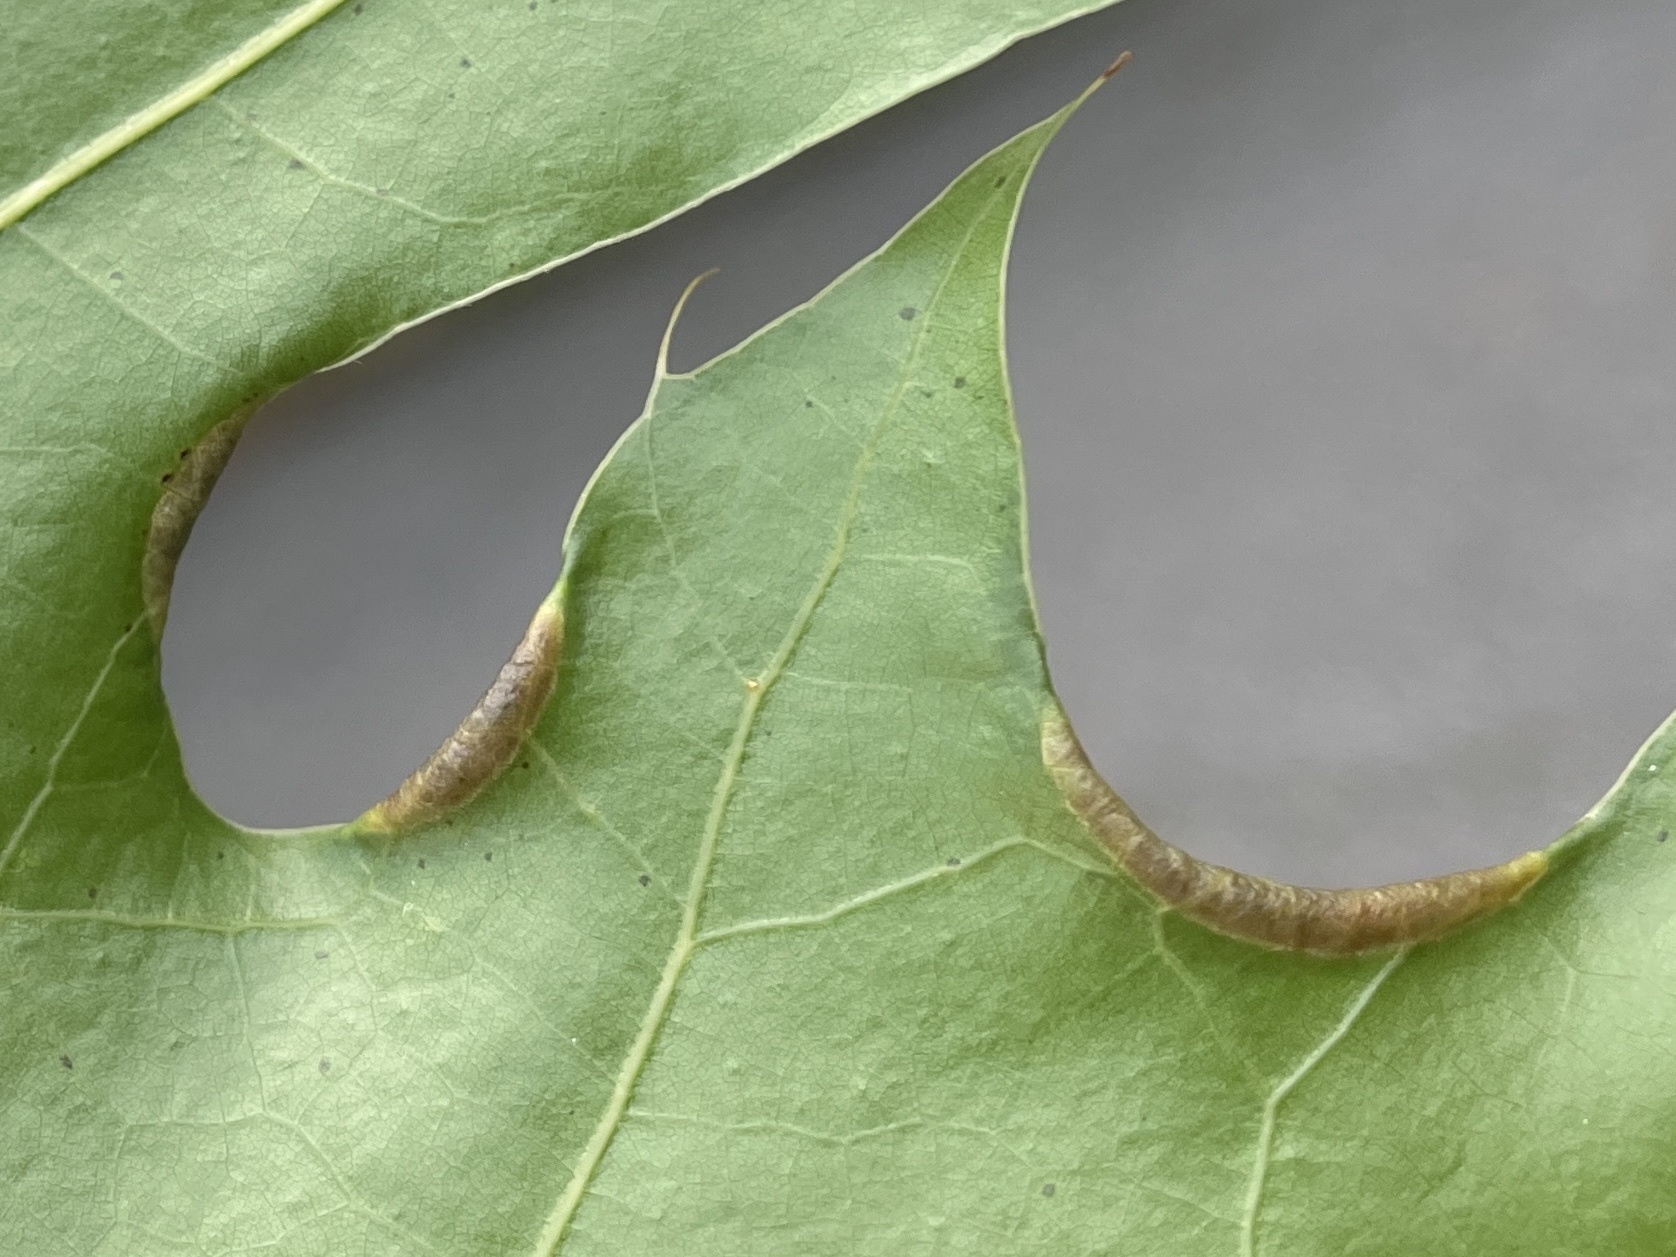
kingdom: Animalia
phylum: Arthropoda
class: Insecta
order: Diptera
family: Cecidomyiidae
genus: Macrodiplosis
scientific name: Macrodiplosis erubescens
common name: Marginal leaf fold gall midge
